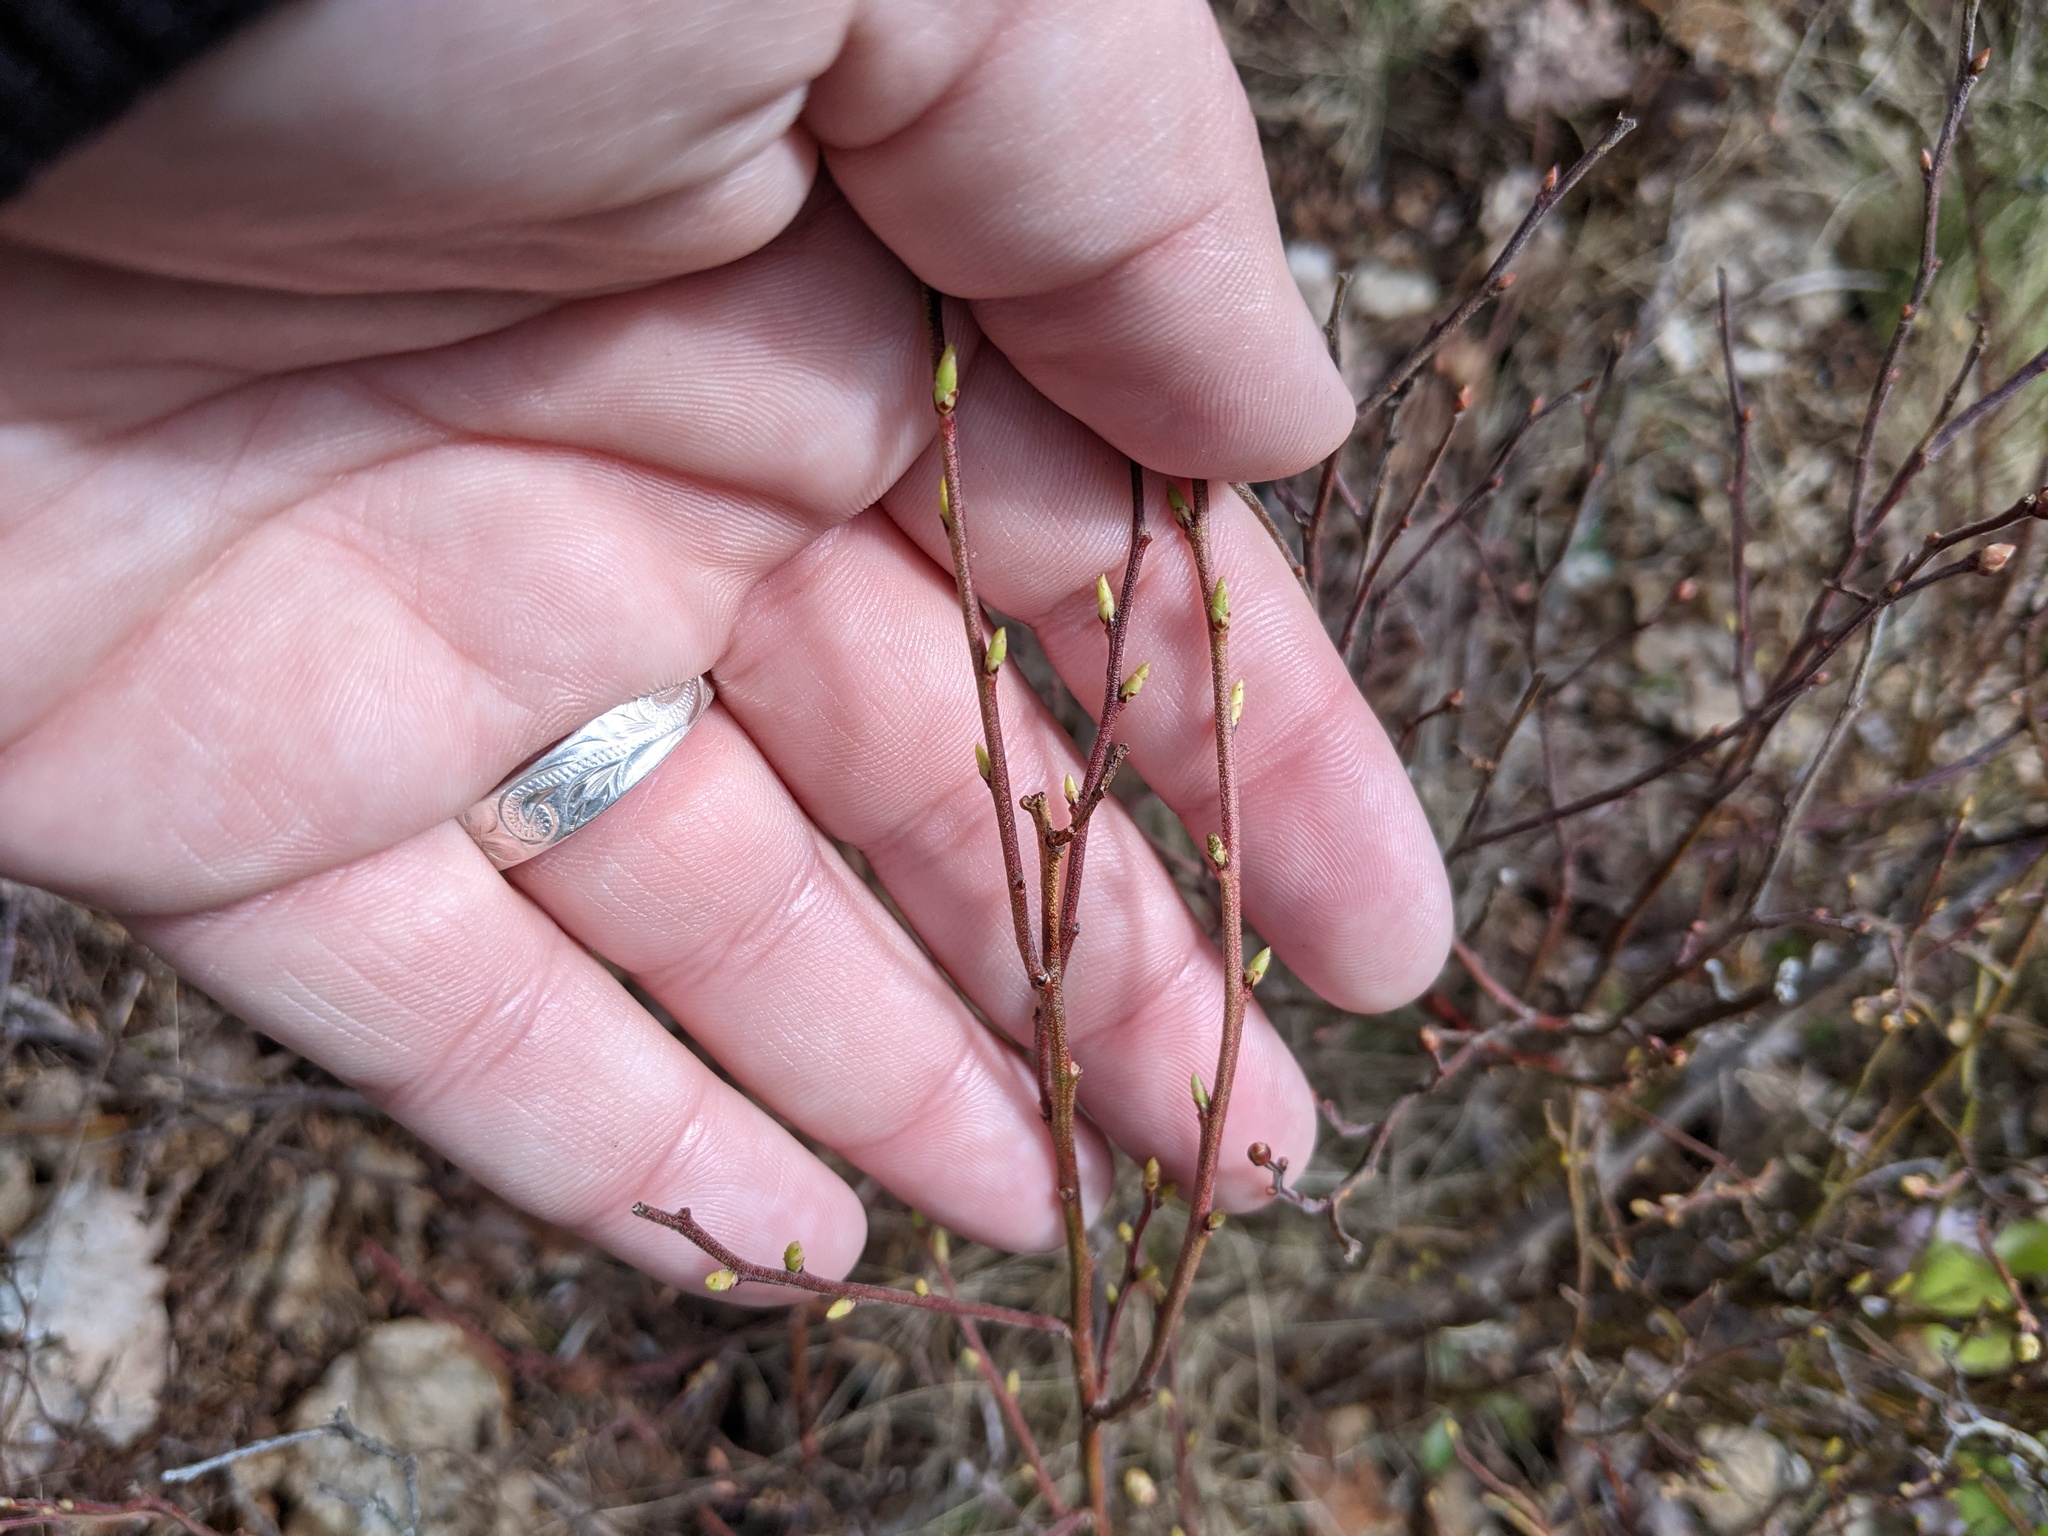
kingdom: Plantae
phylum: Tracheophyta
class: Magnoliopsida
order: Ericales
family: Ericaceae
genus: Vaccinium
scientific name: Vaccinium angustifolium
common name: Early lowbush blueberry
